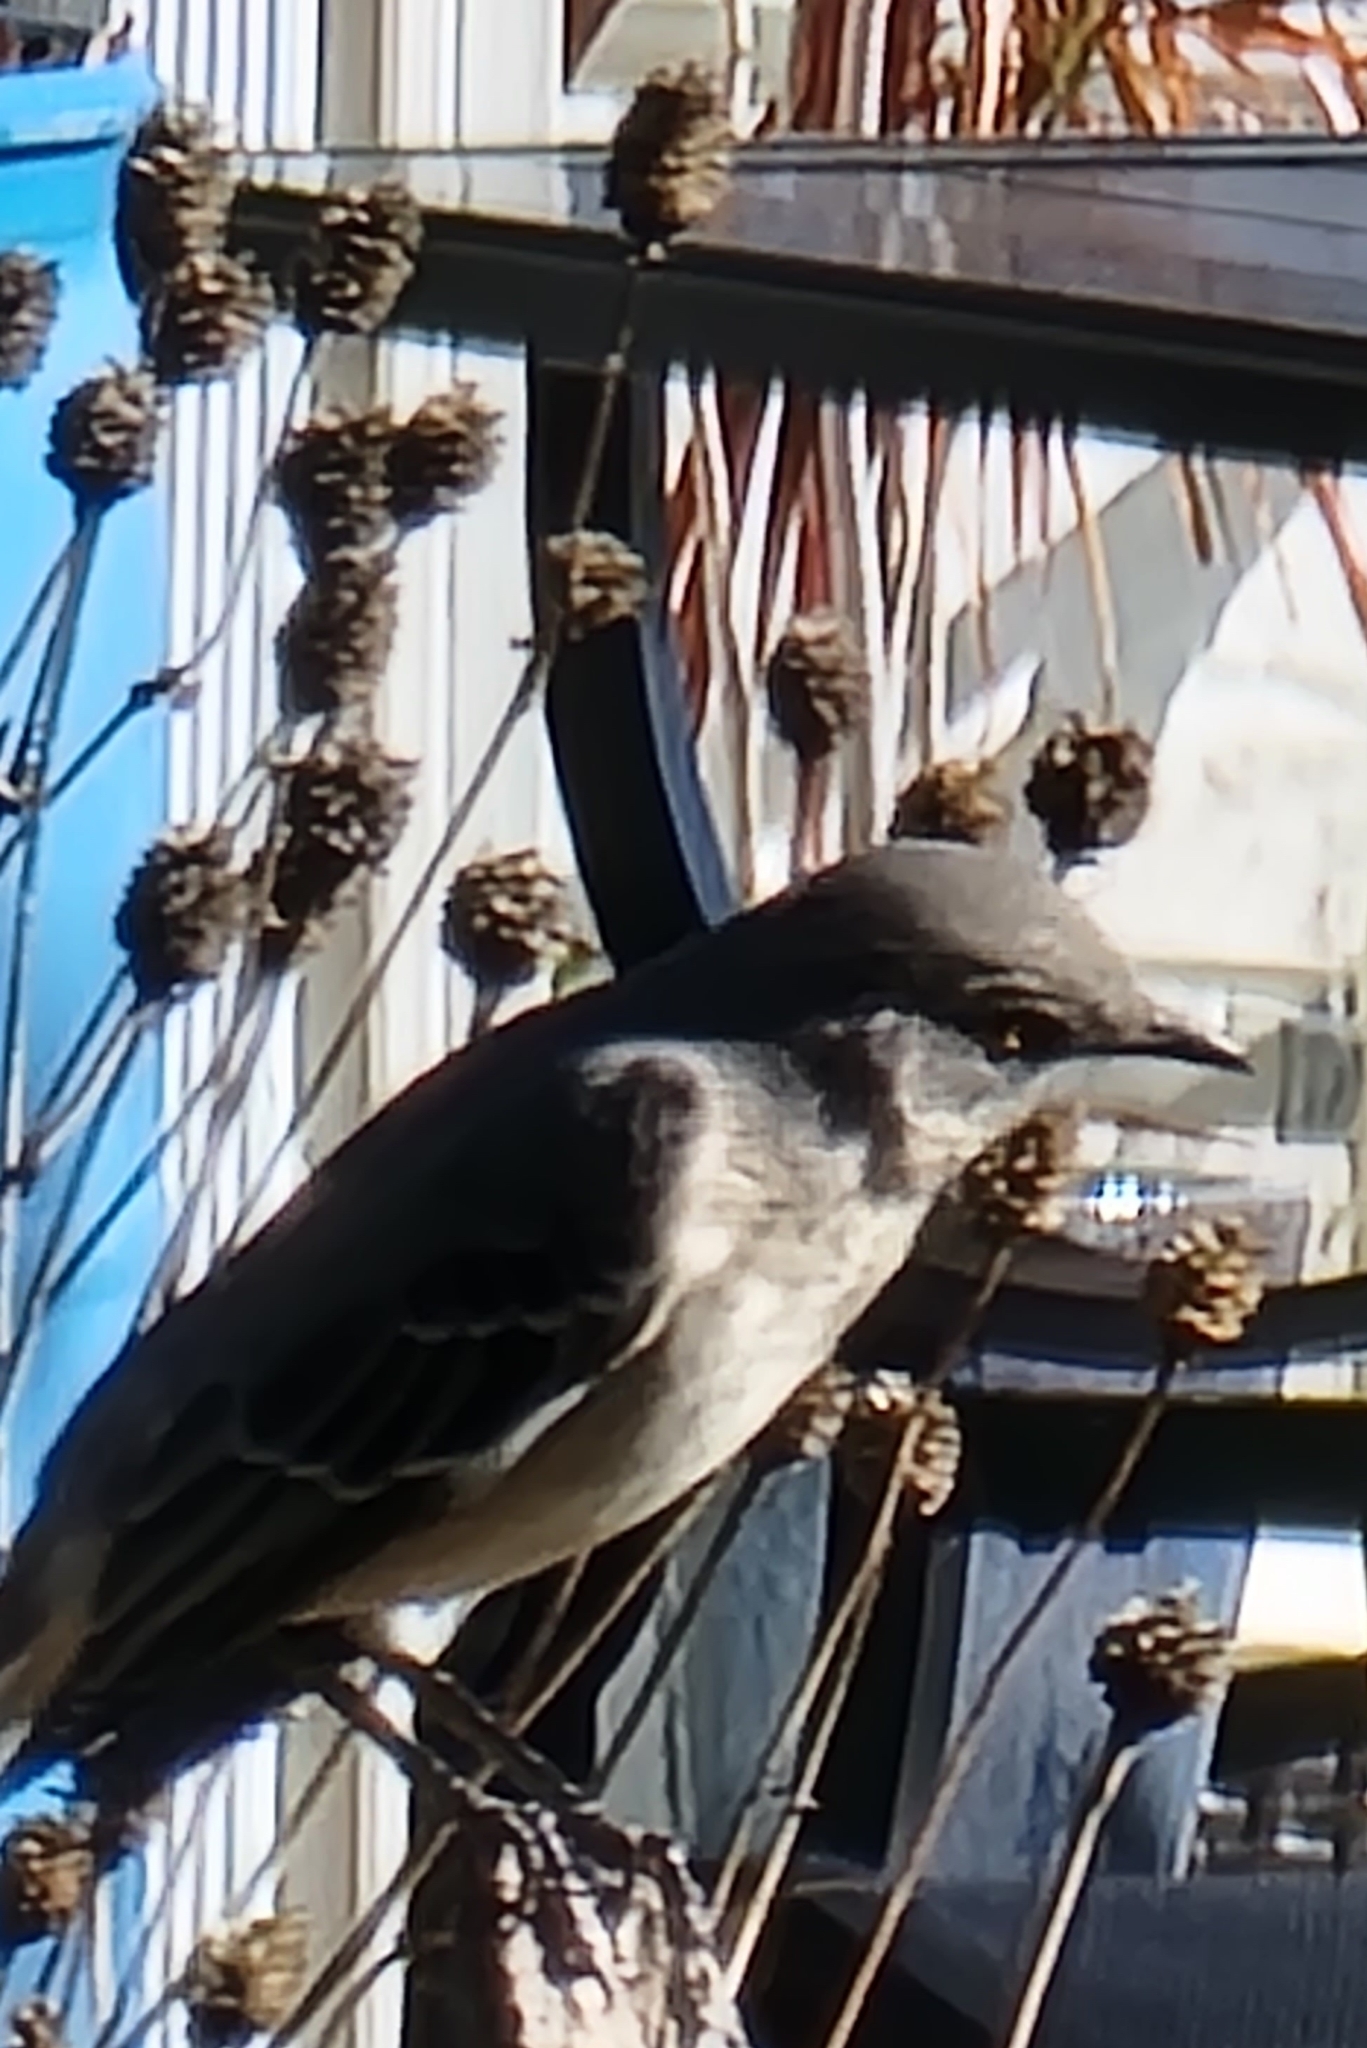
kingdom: Animalia
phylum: Chordata
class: Aves
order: Passeriformes
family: Mimidae
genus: Mimus
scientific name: Mimus polyglottos
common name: Northern mockingbird
